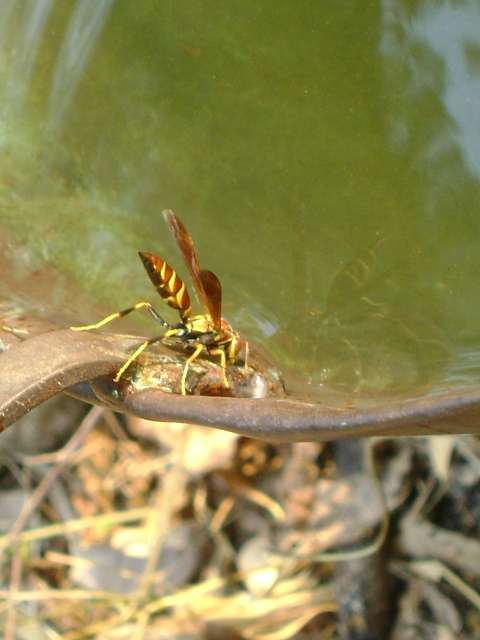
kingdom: Animalia
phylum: Arthropoda
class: Insecta
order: Hymenoptera
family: Eumenidae
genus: Polistes
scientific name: Polistes instabilis
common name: Unstable paper wasp
